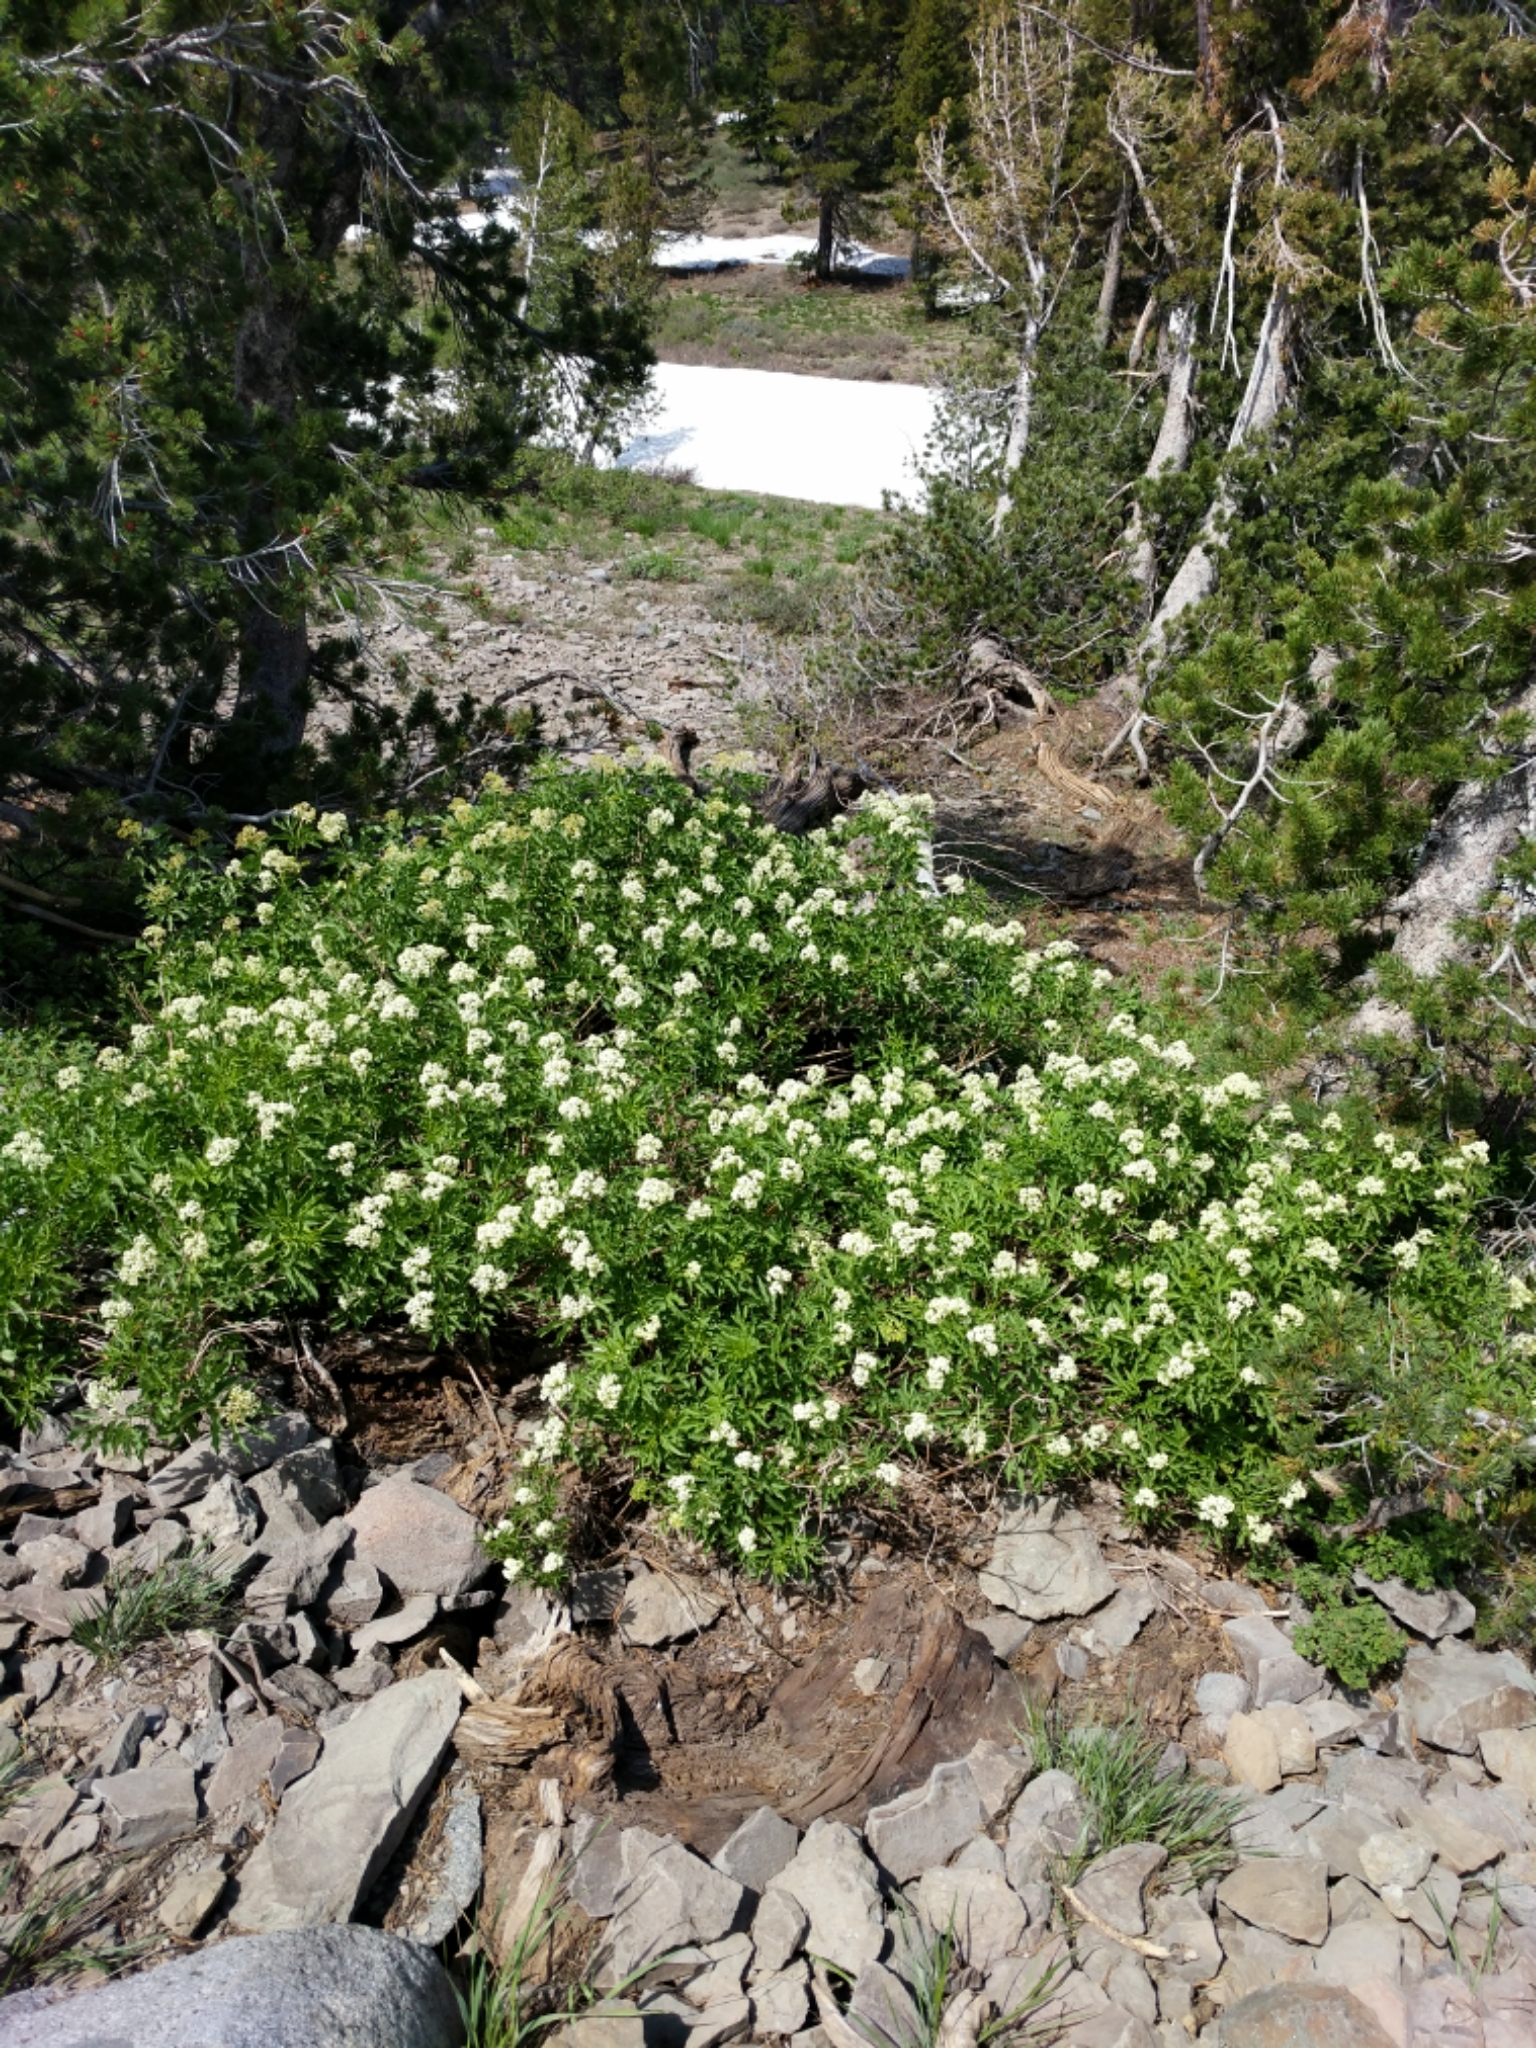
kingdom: Plantae
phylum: Tracheophyta
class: Magnoliopsida
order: Dipsacales
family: Viburnaceae
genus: Sambucus
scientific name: Sambucus racemosa
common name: Red-berried elder
